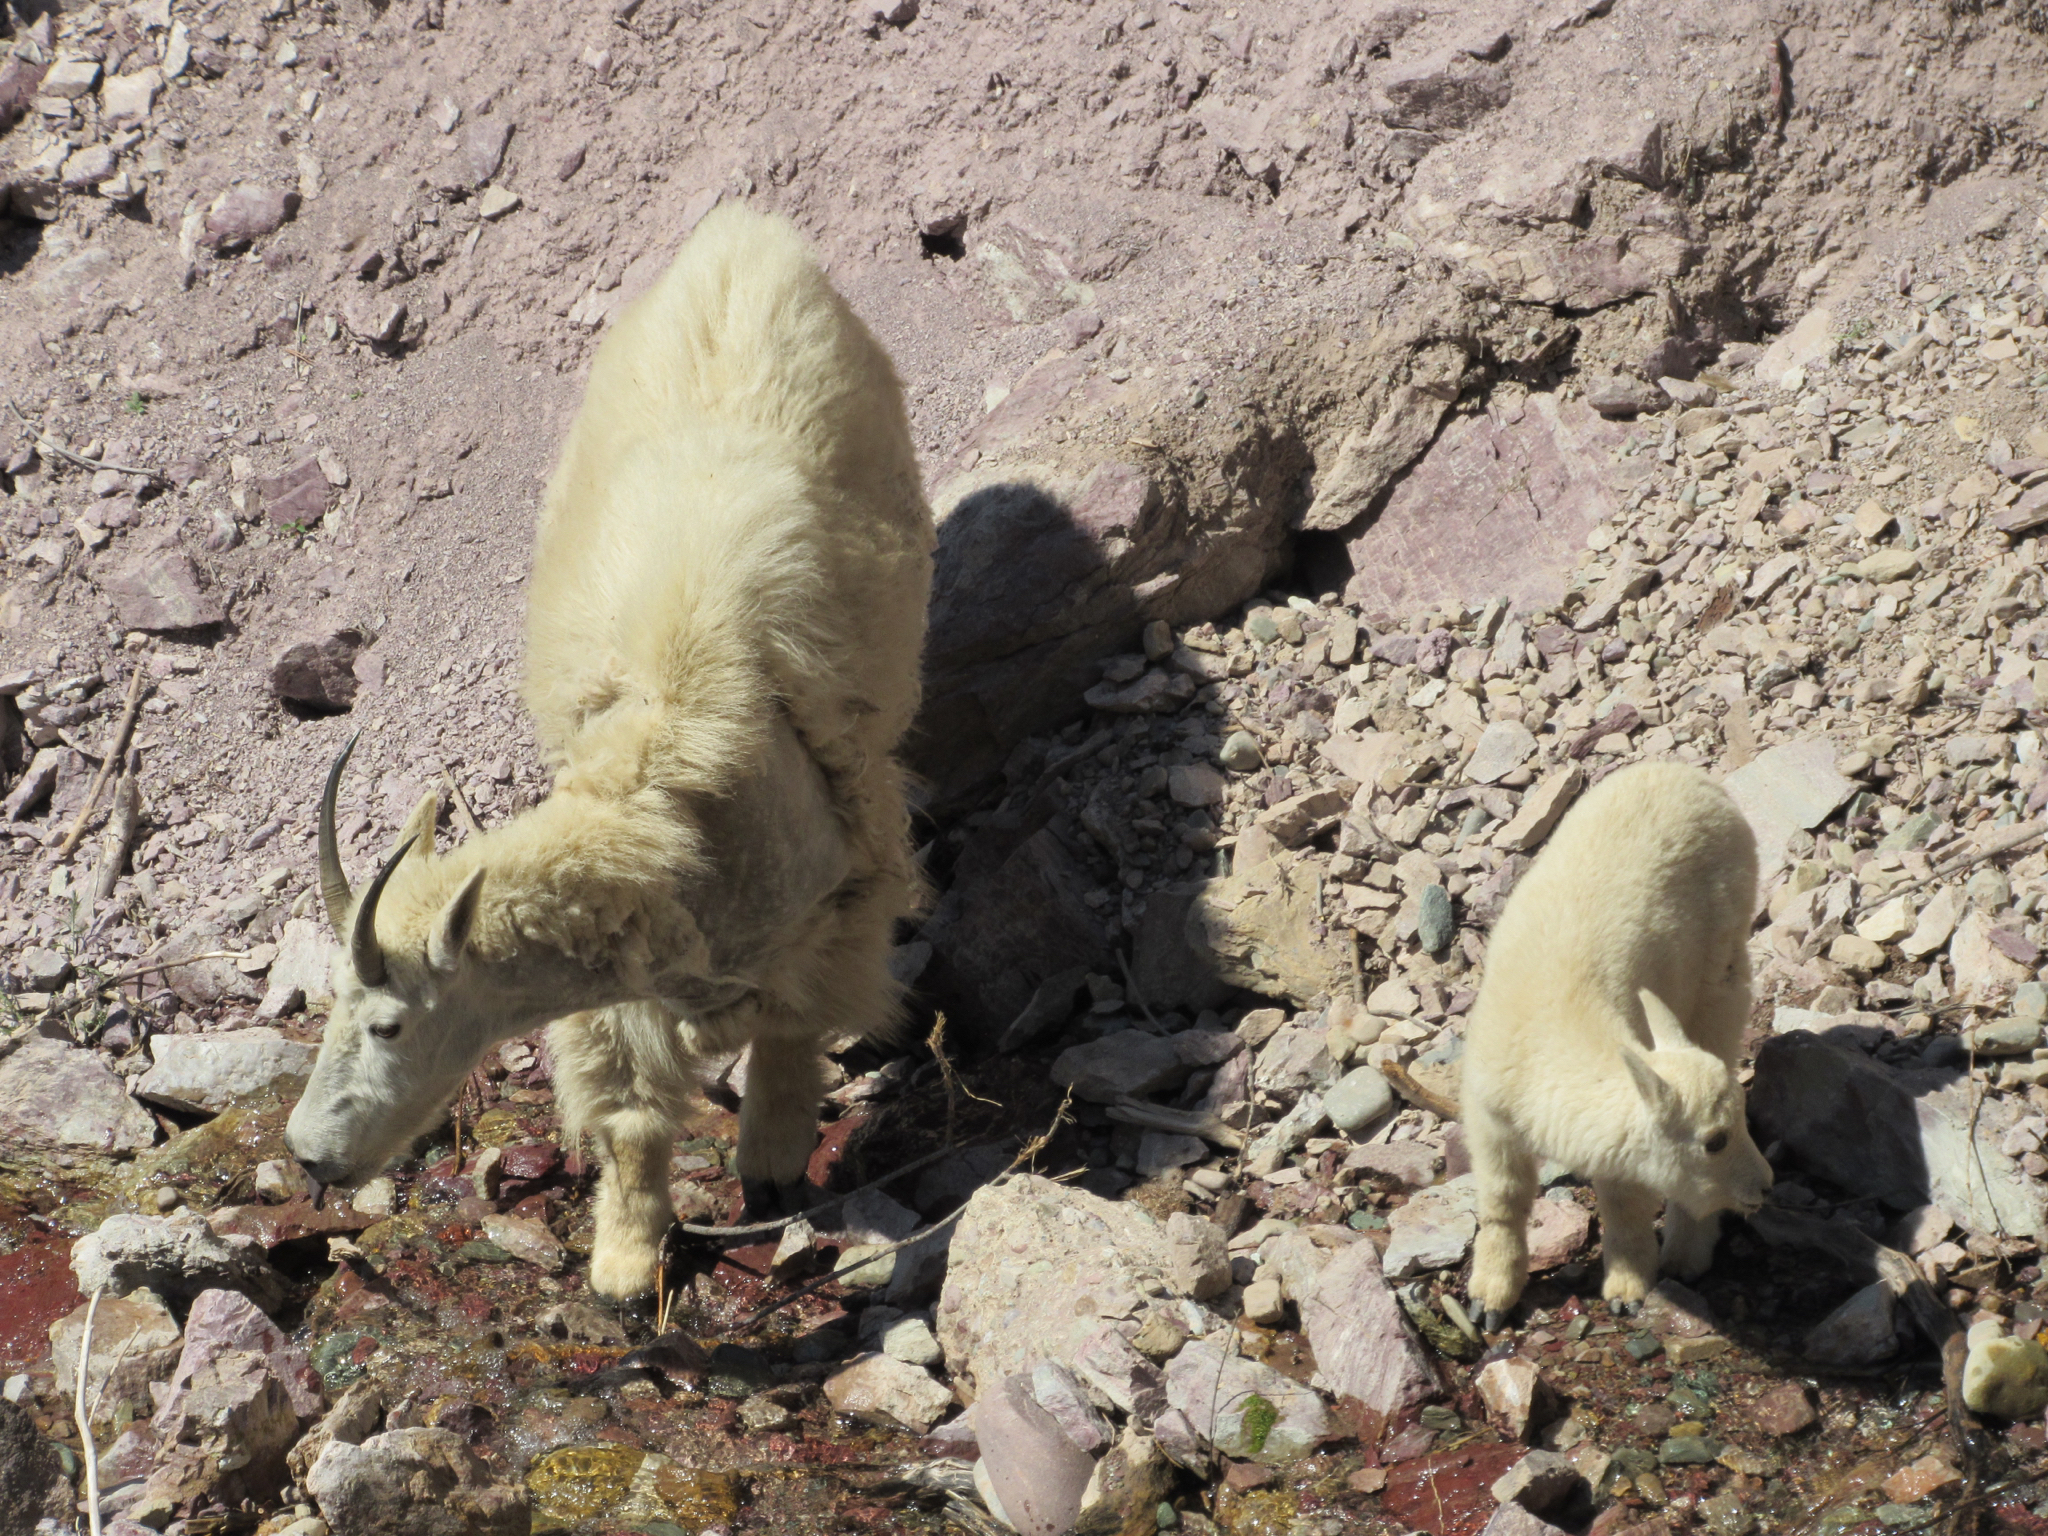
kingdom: Animalia
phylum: Chordata
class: Mammalia
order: Artiodactyla
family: Bovidae
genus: Oreamnos
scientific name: Oreamnos americanus
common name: Mountain goat
